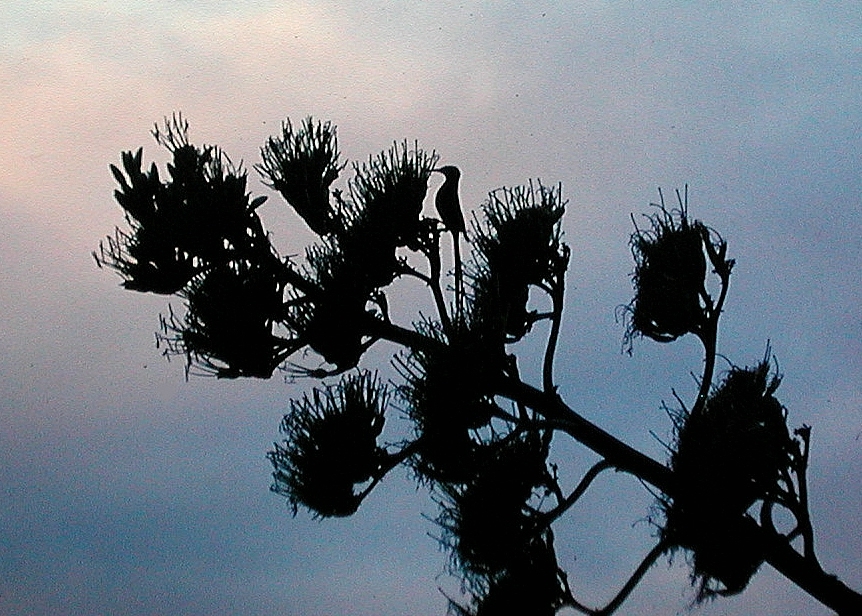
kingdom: Animalia
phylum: Chordata
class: Aves
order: Passeriformes
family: Promeropidae
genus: Promerops
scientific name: Promerops cafer
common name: Cape sugarbird
